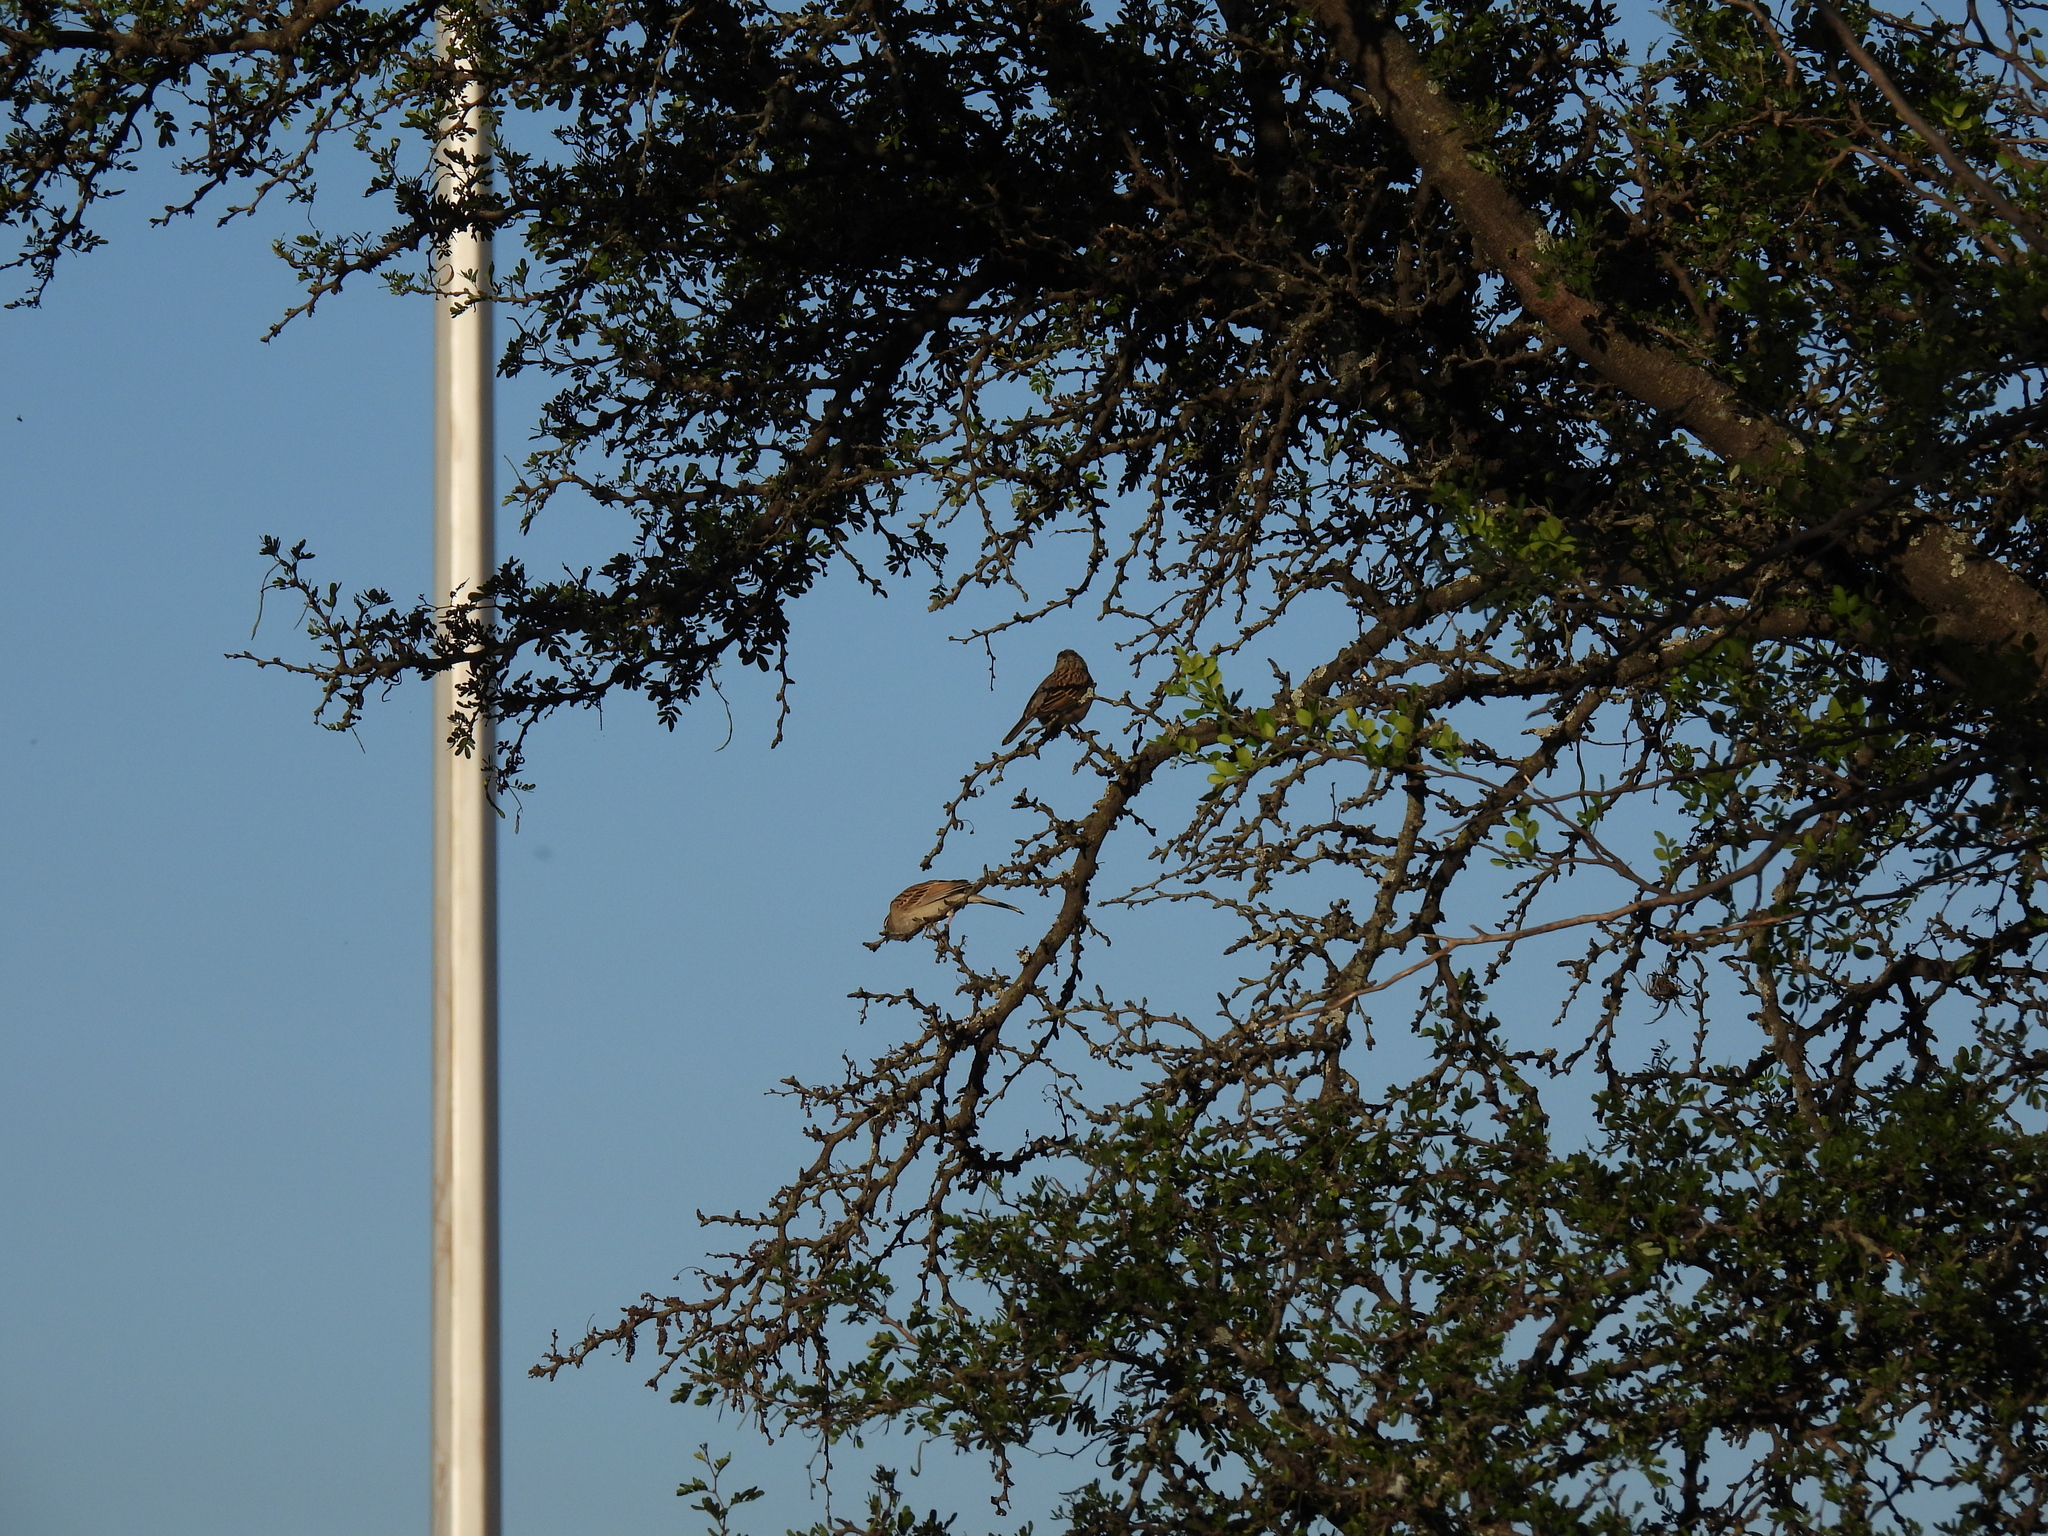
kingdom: Animalia
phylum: Chordata
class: Aves
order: Passeriformes
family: Passerellidae
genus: Spizella
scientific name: Spizella passerina
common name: Chipping sparrow
